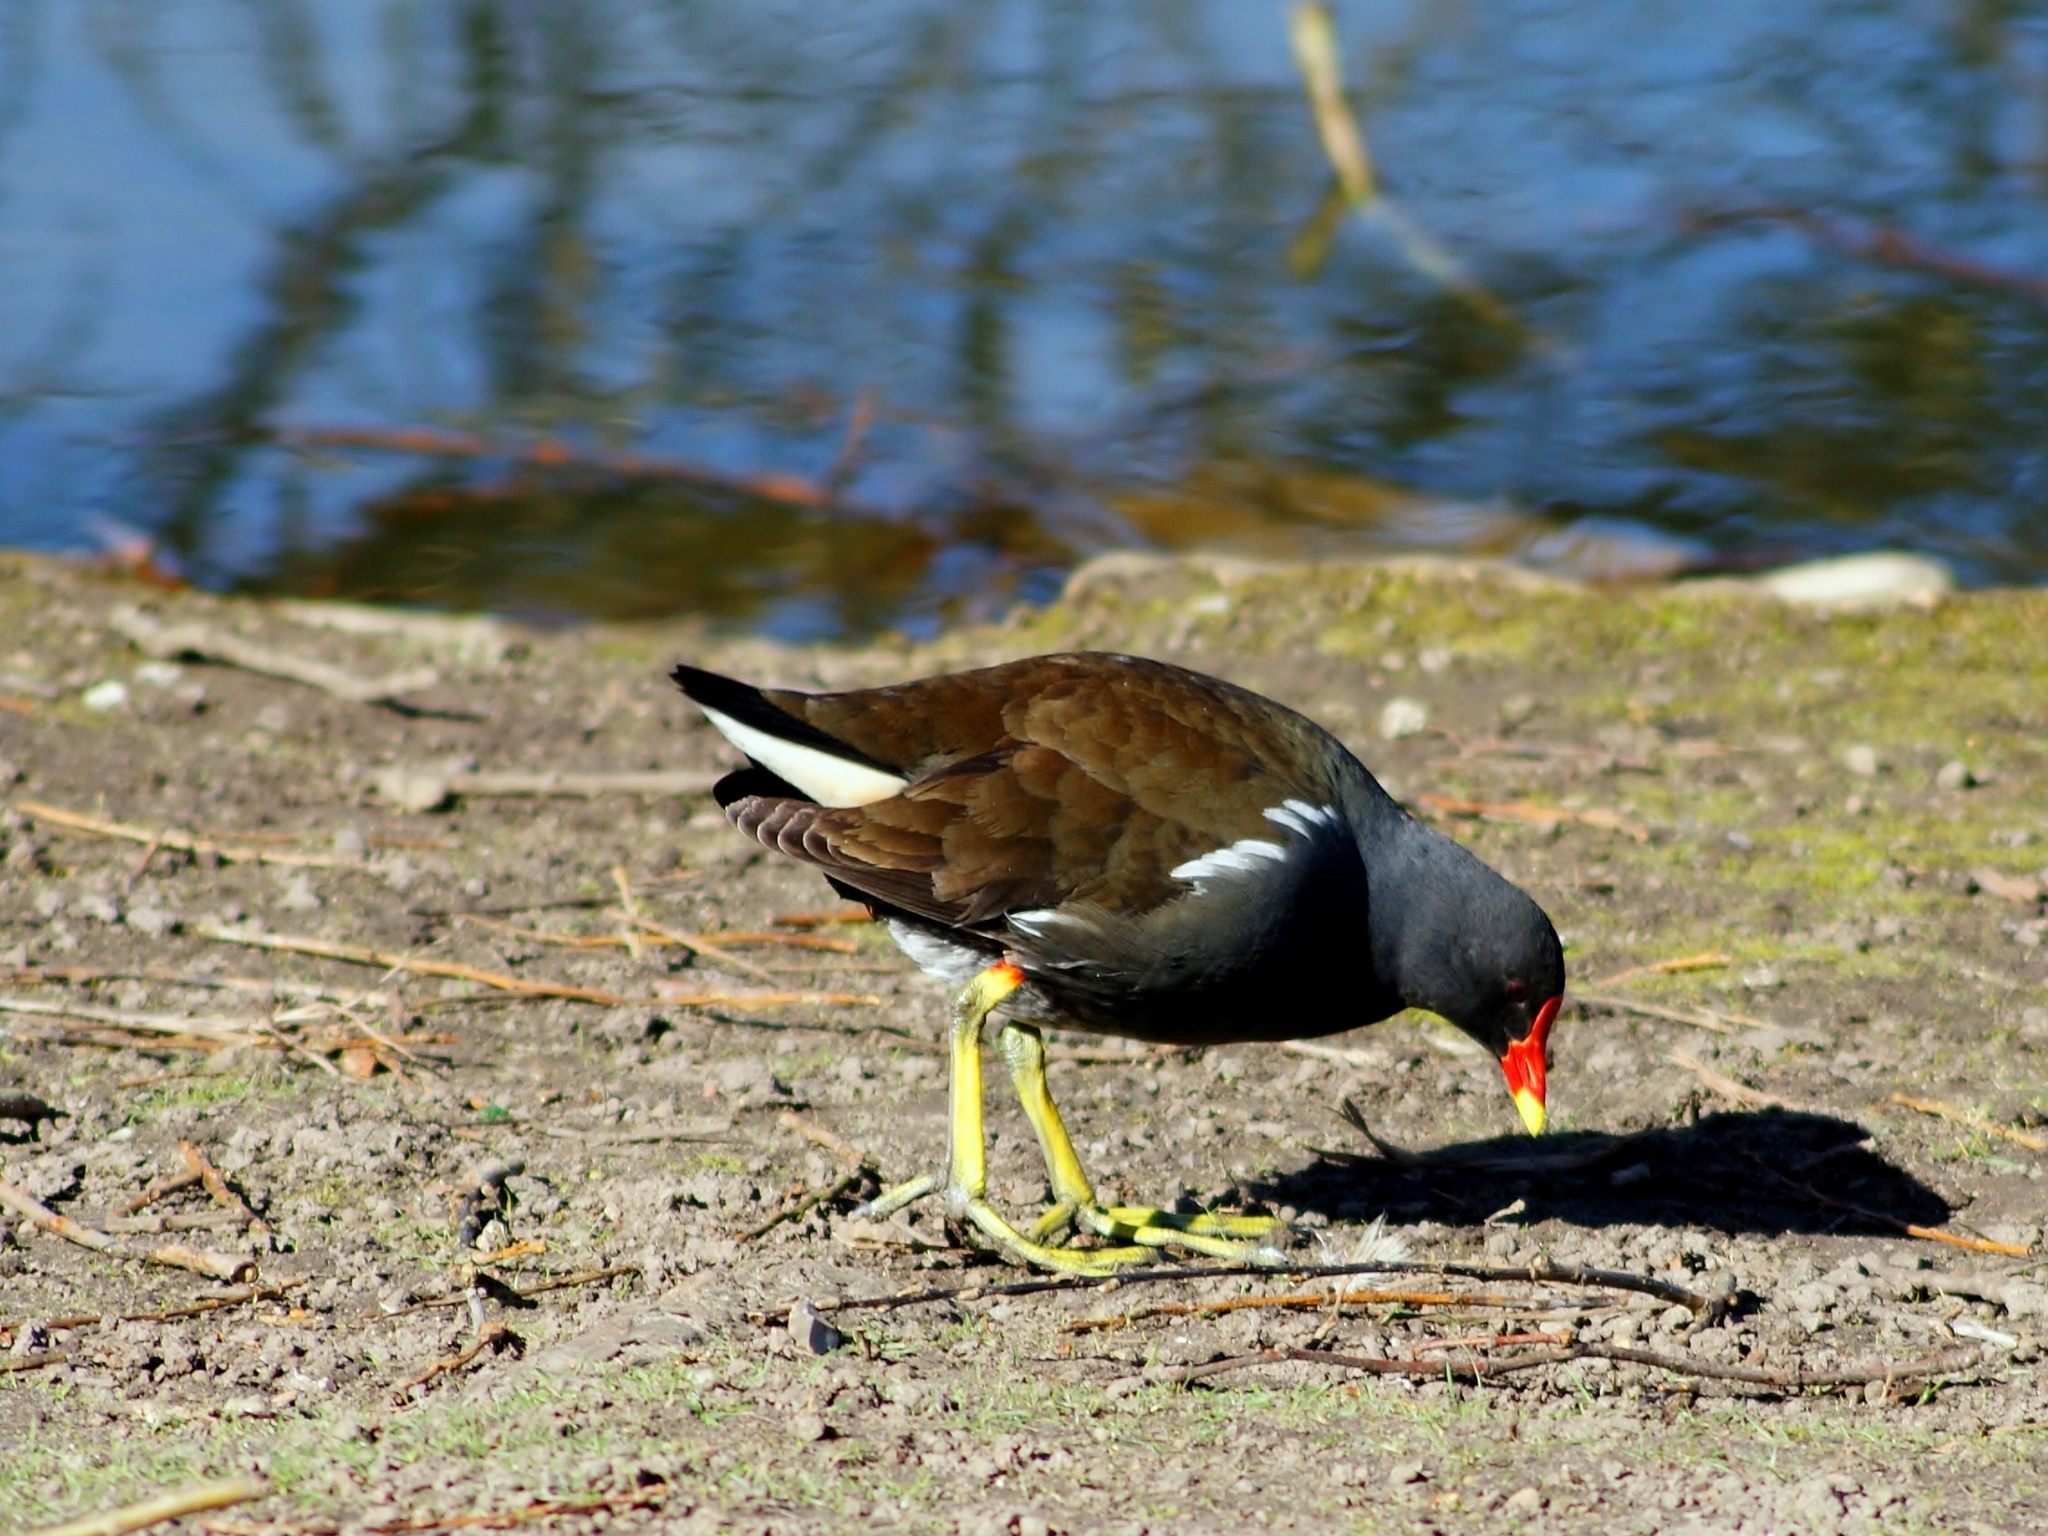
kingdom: Animalia
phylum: Chordata
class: Aves
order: Gruiformes
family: Rallidae
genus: Gallinula
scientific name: Gallinula chloropus
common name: Common moorhen
